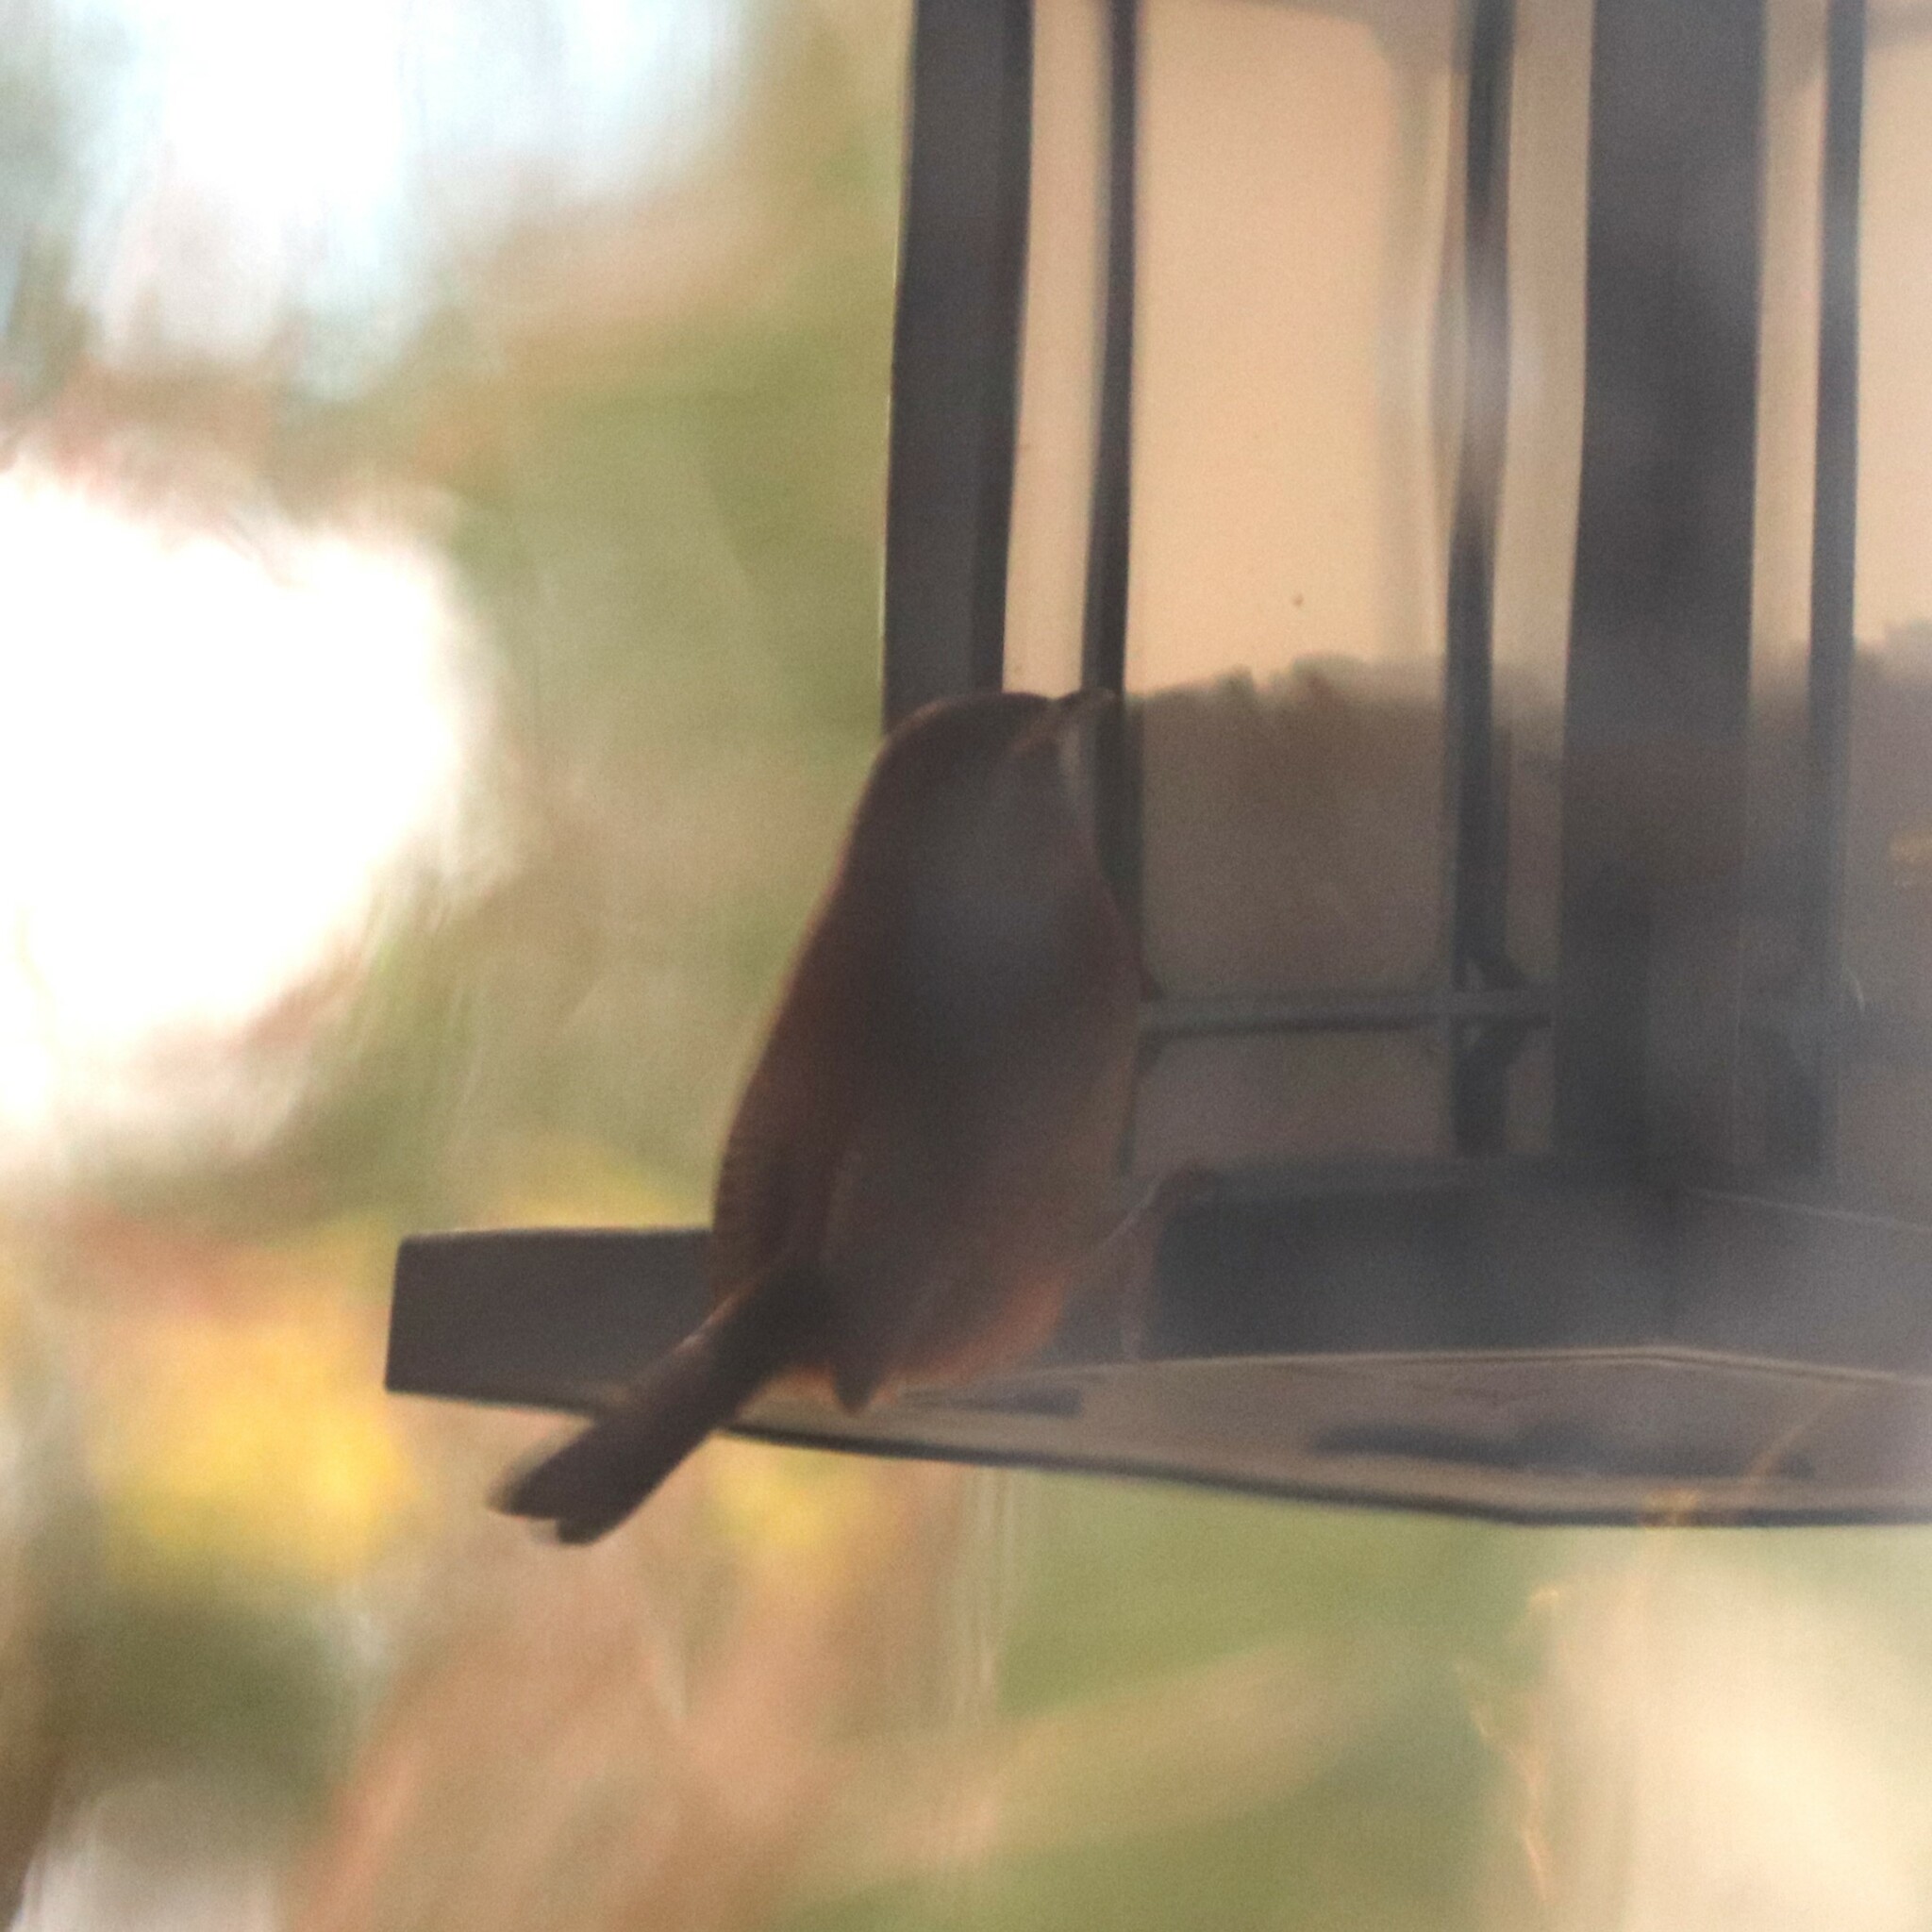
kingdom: Animalia
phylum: Chordata
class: Aves
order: Passeriformes
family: Troglodytidae
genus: Thryothorus
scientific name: Thryothorus ludovicianus
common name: Carolina wren
